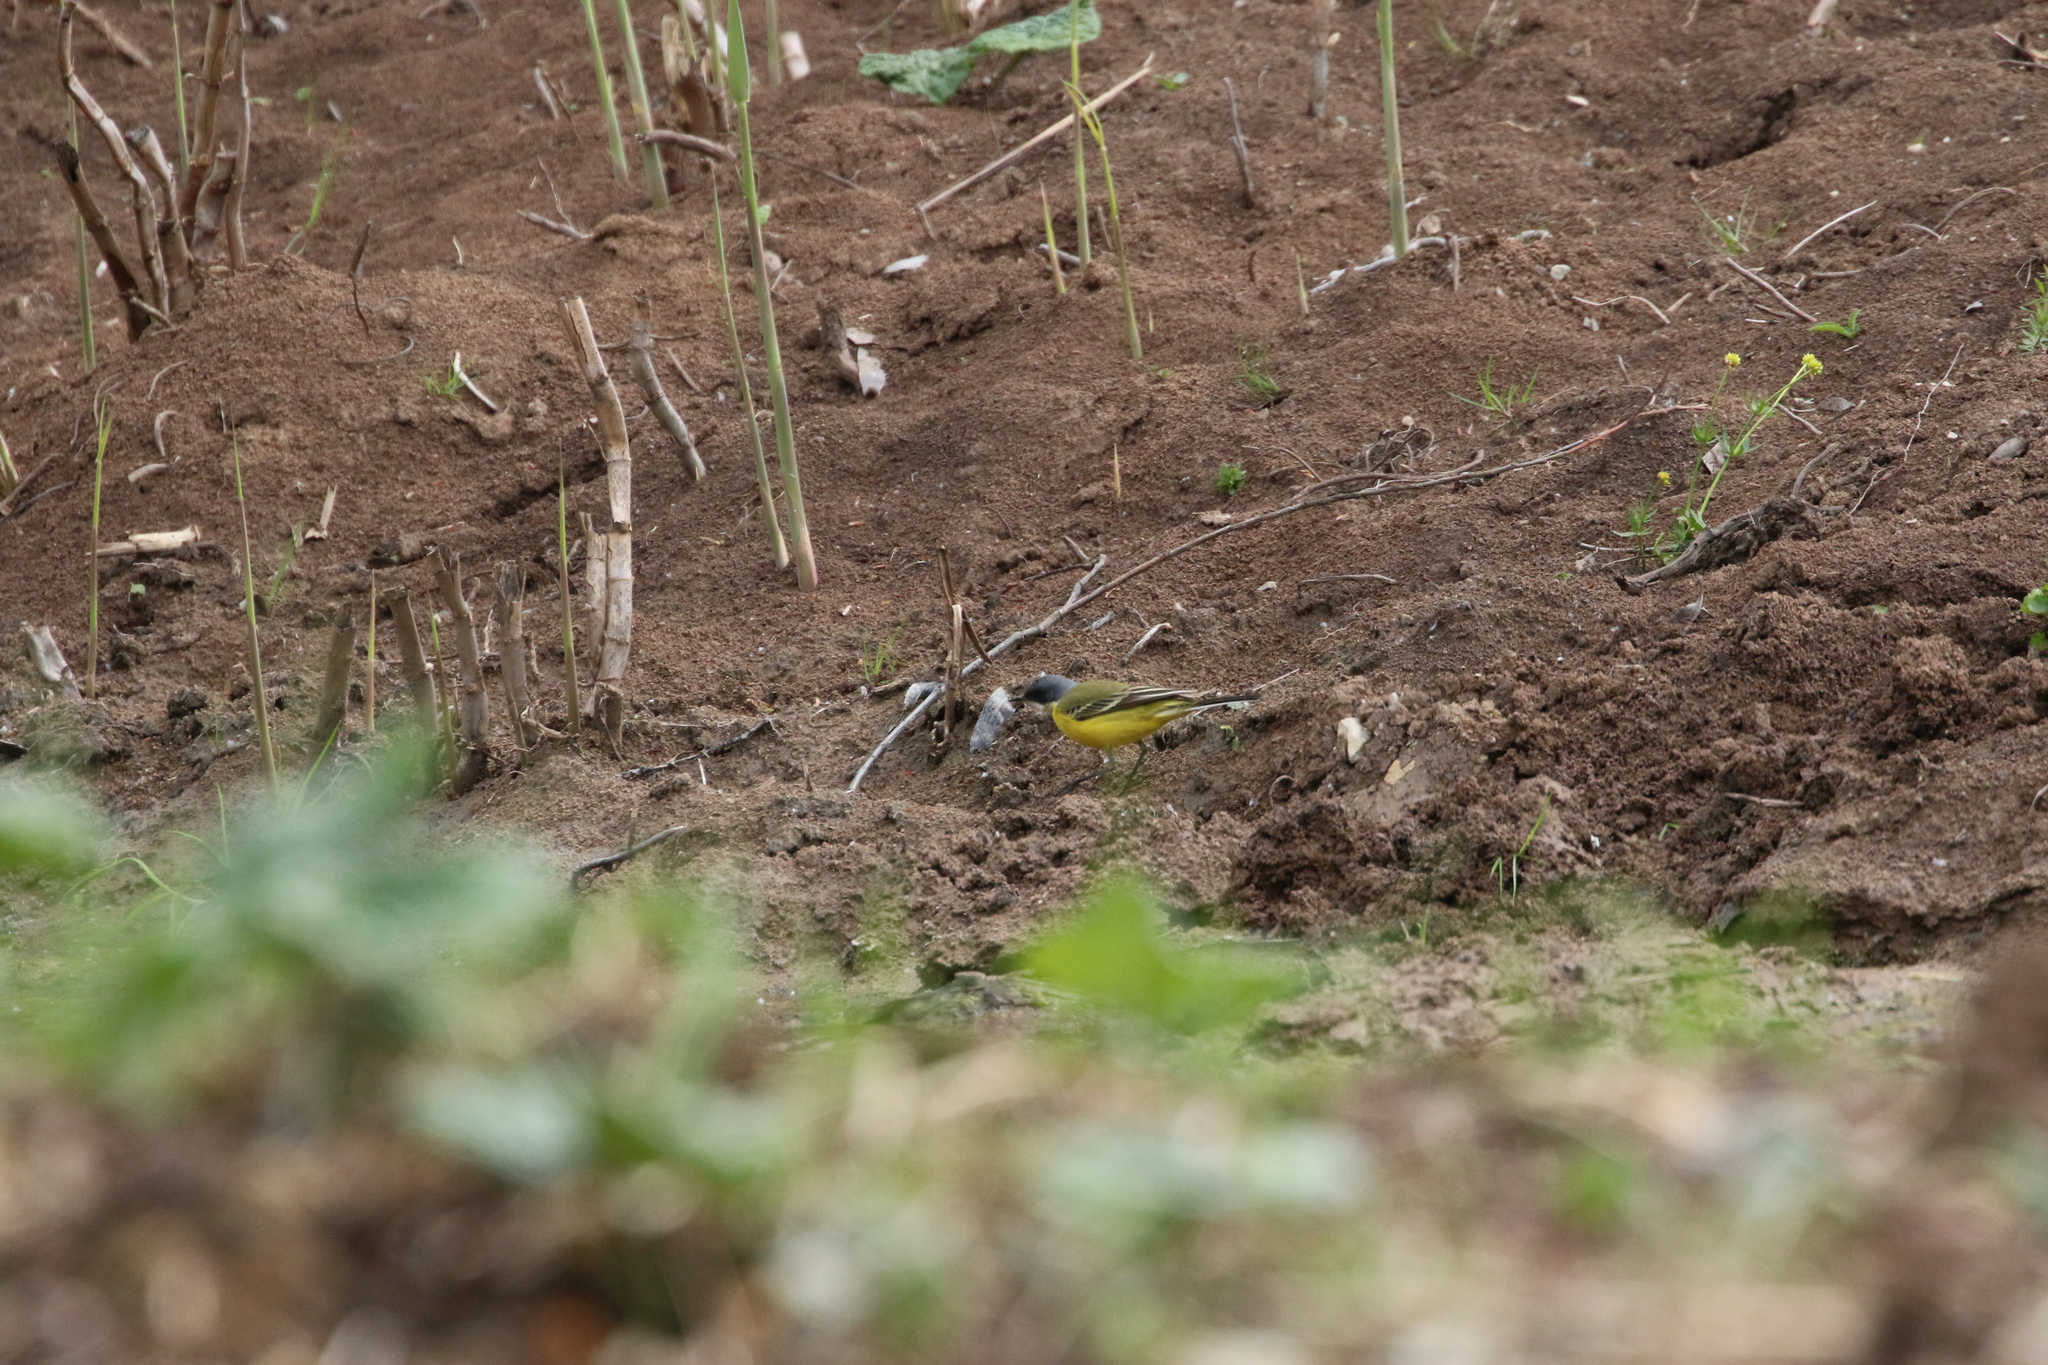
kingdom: Animalia
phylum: Chordata
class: Aves
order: Passeriformes
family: Motacillidae
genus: Motacilla
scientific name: Motacilla flava
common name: Western yellow wagtail
